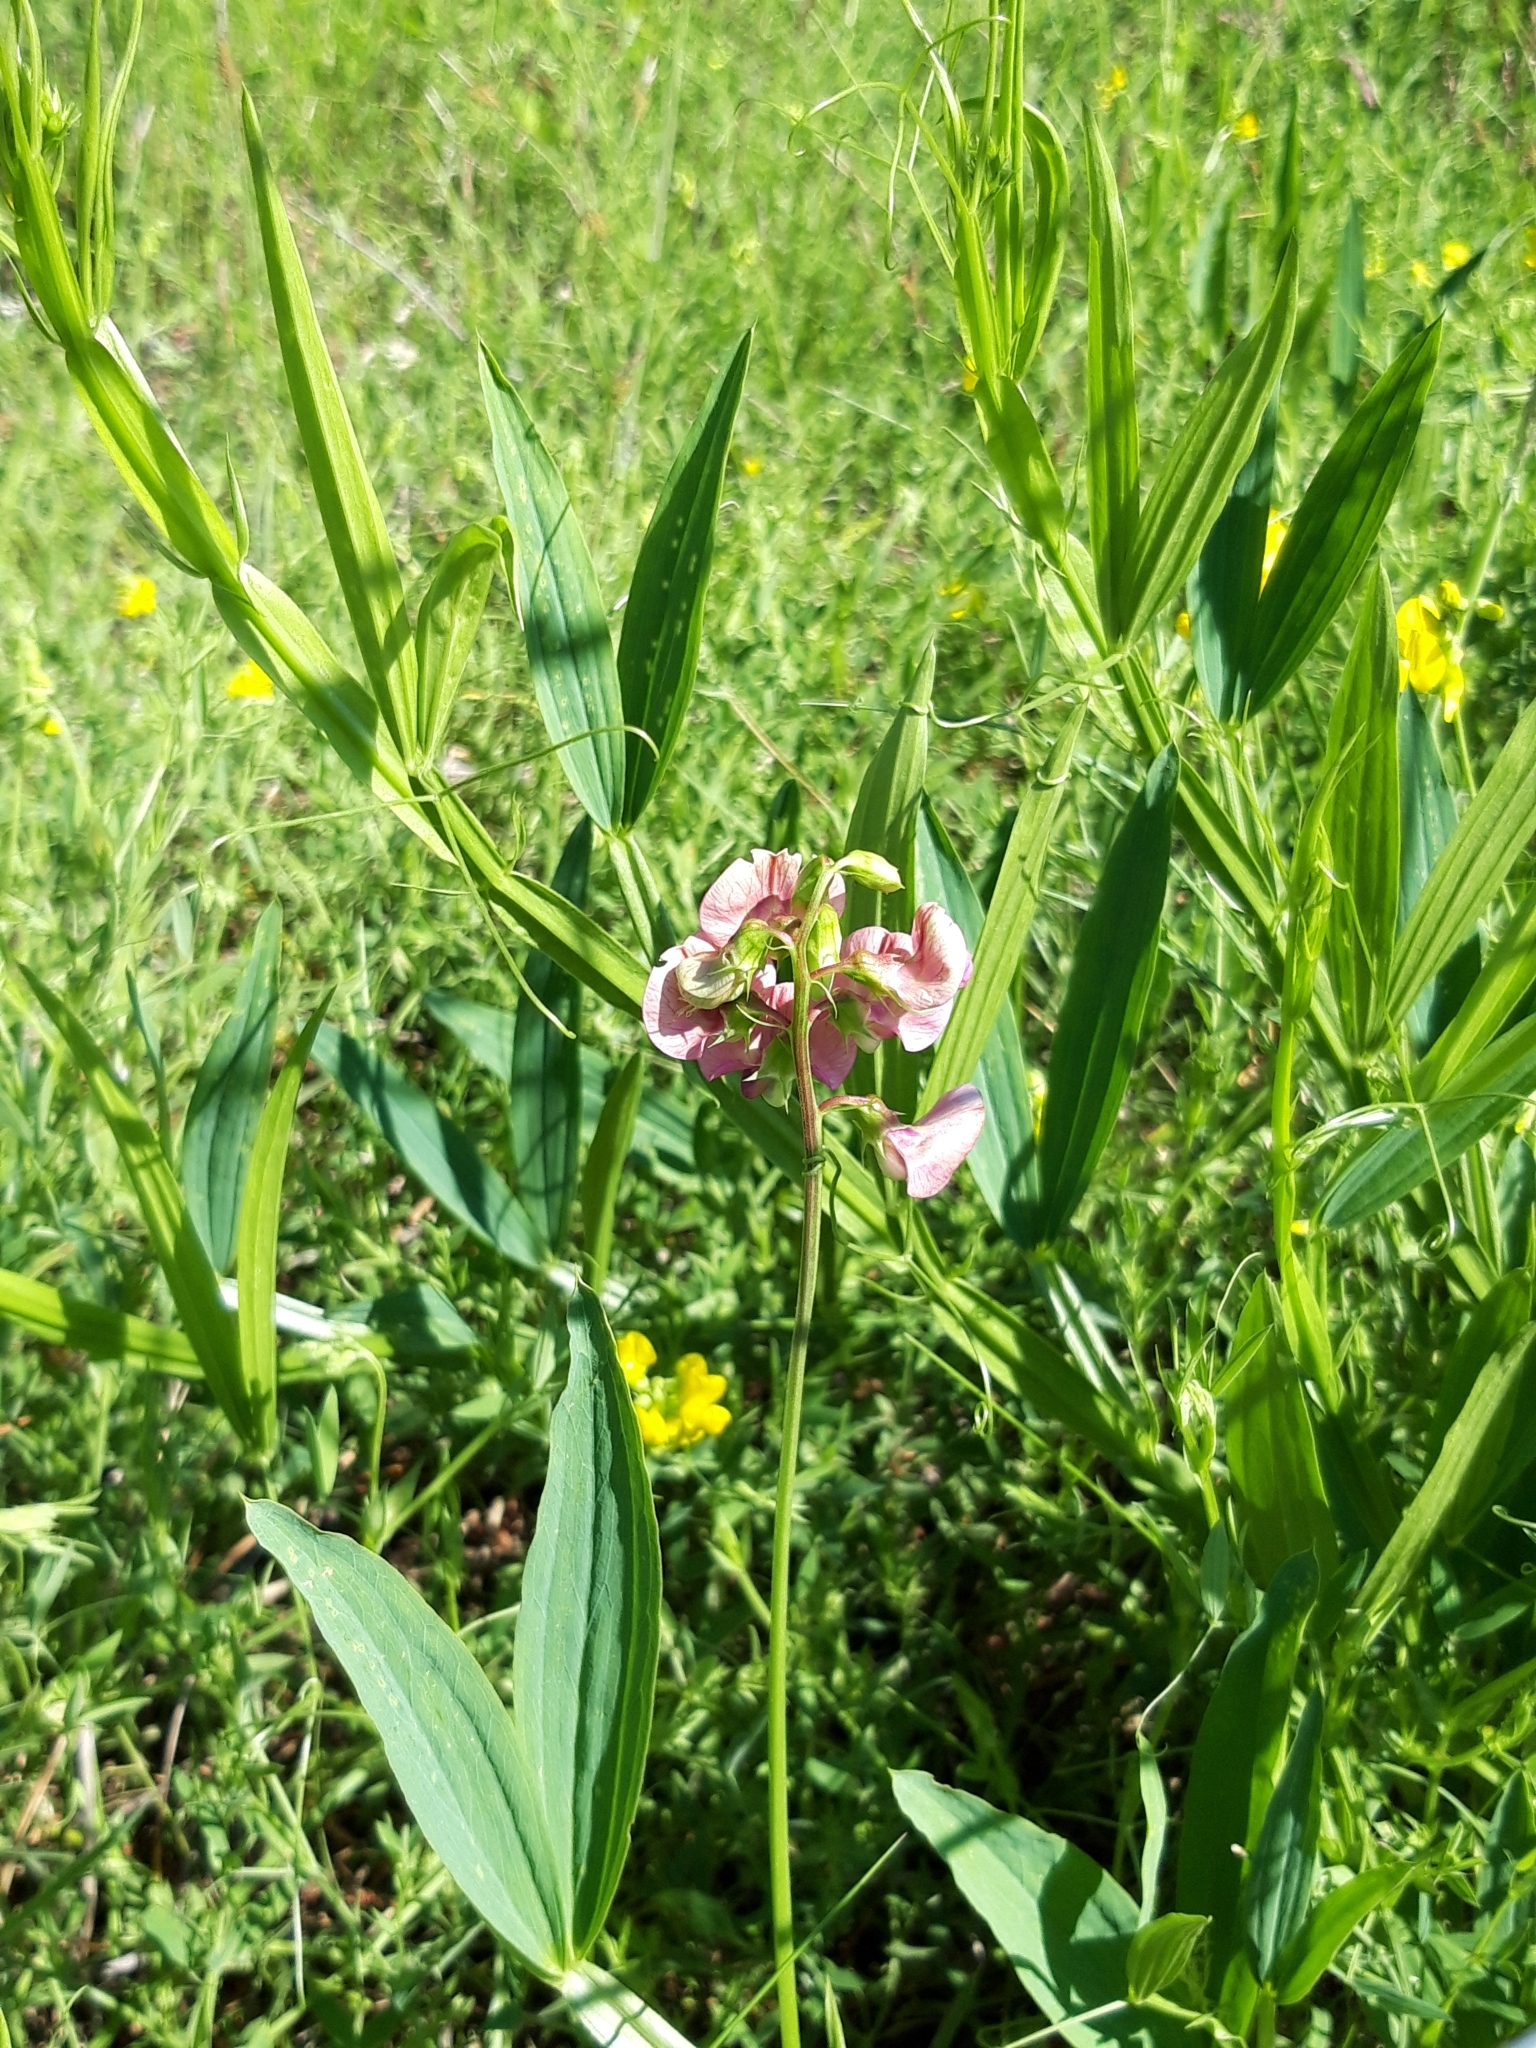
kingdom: Plantae
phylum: Tracheophyta
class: Magnoliopsida
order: Fabales
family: Fabaceae
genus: Lathyrus
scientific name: Lathyrus sylvestris
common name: Flat pea
